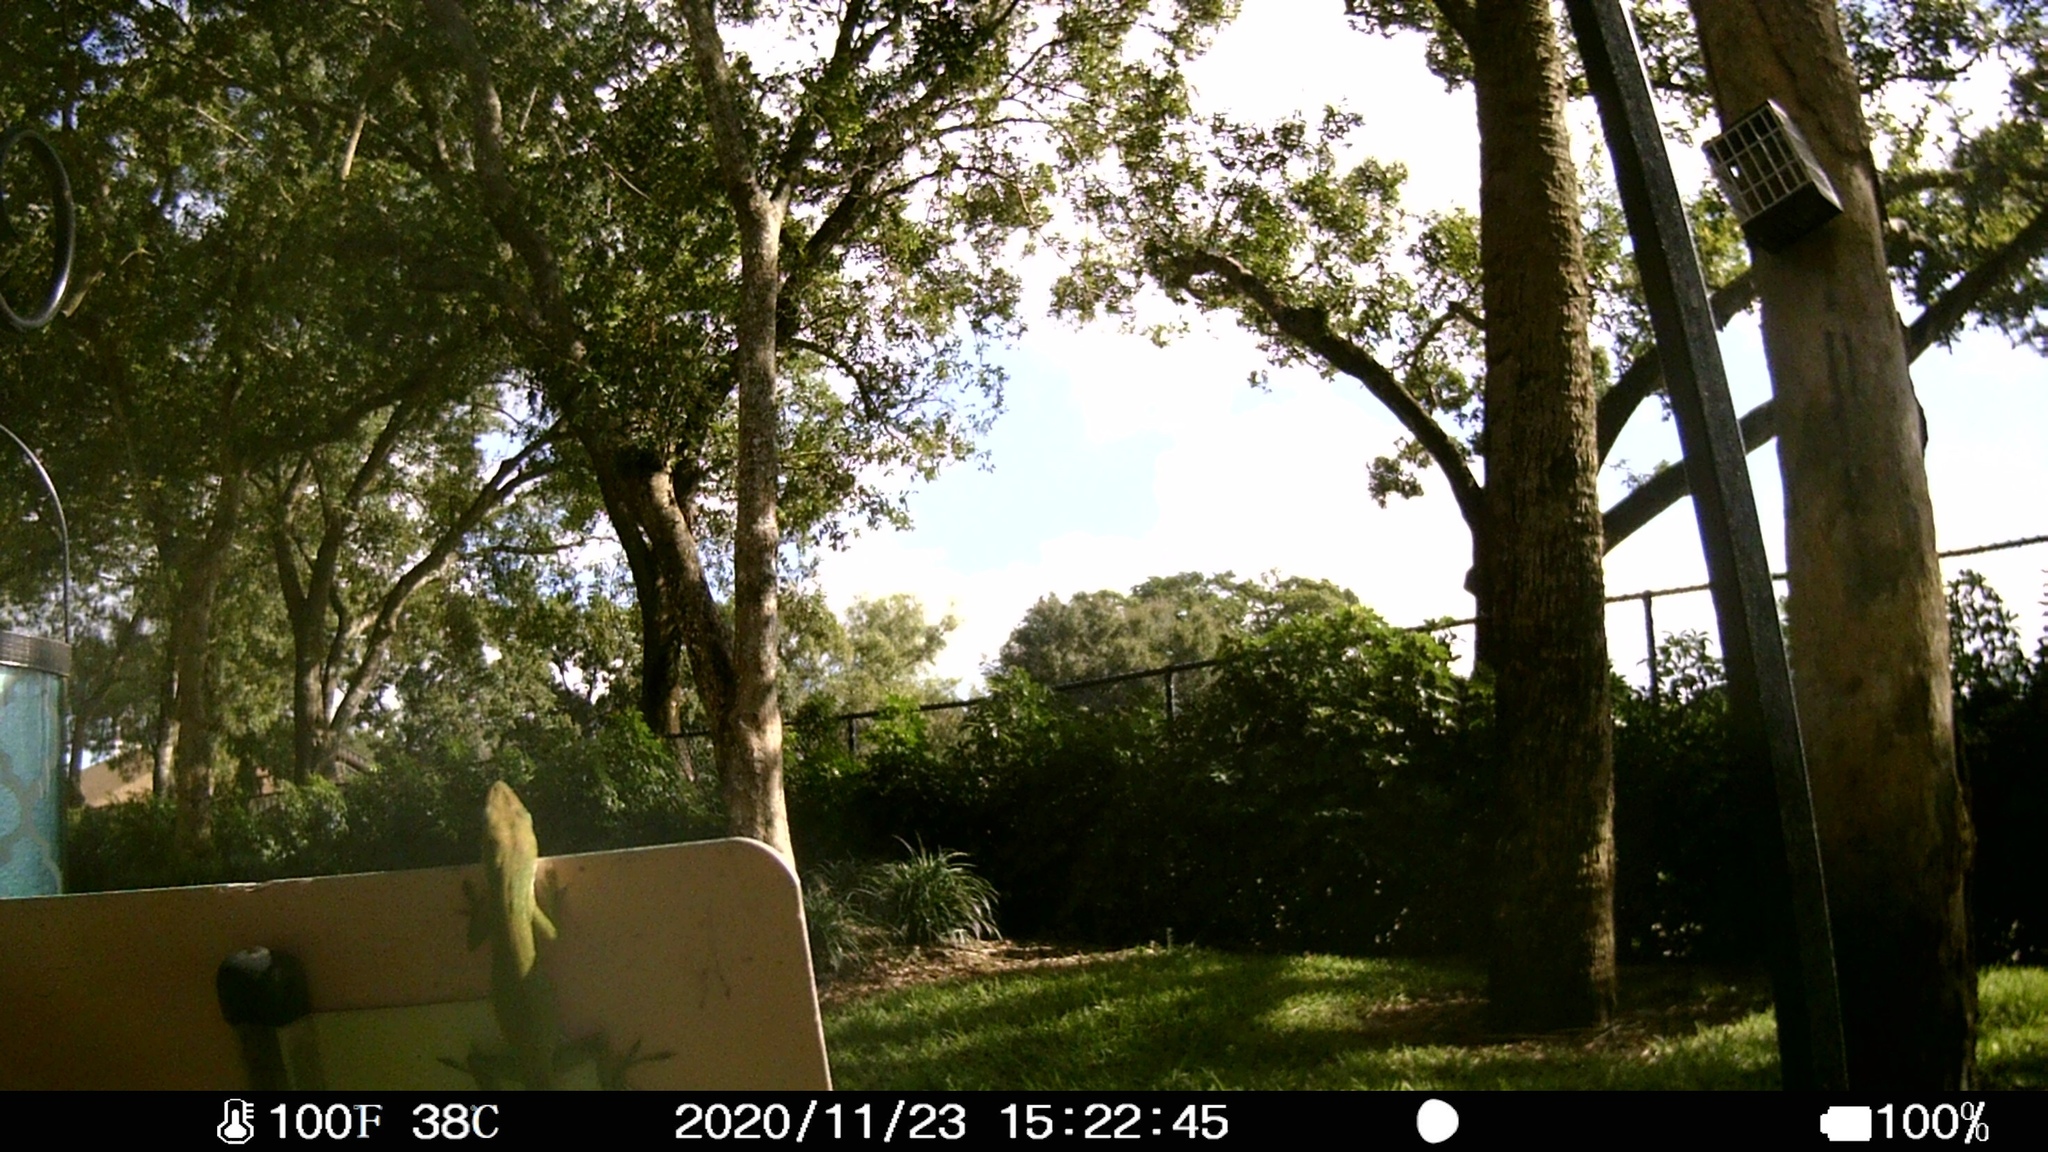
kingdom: Animalia
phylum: Chordata
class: Squamata
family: Dactyloidae
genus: Anolis
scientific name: Anolis carolinensis
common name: Green anole
